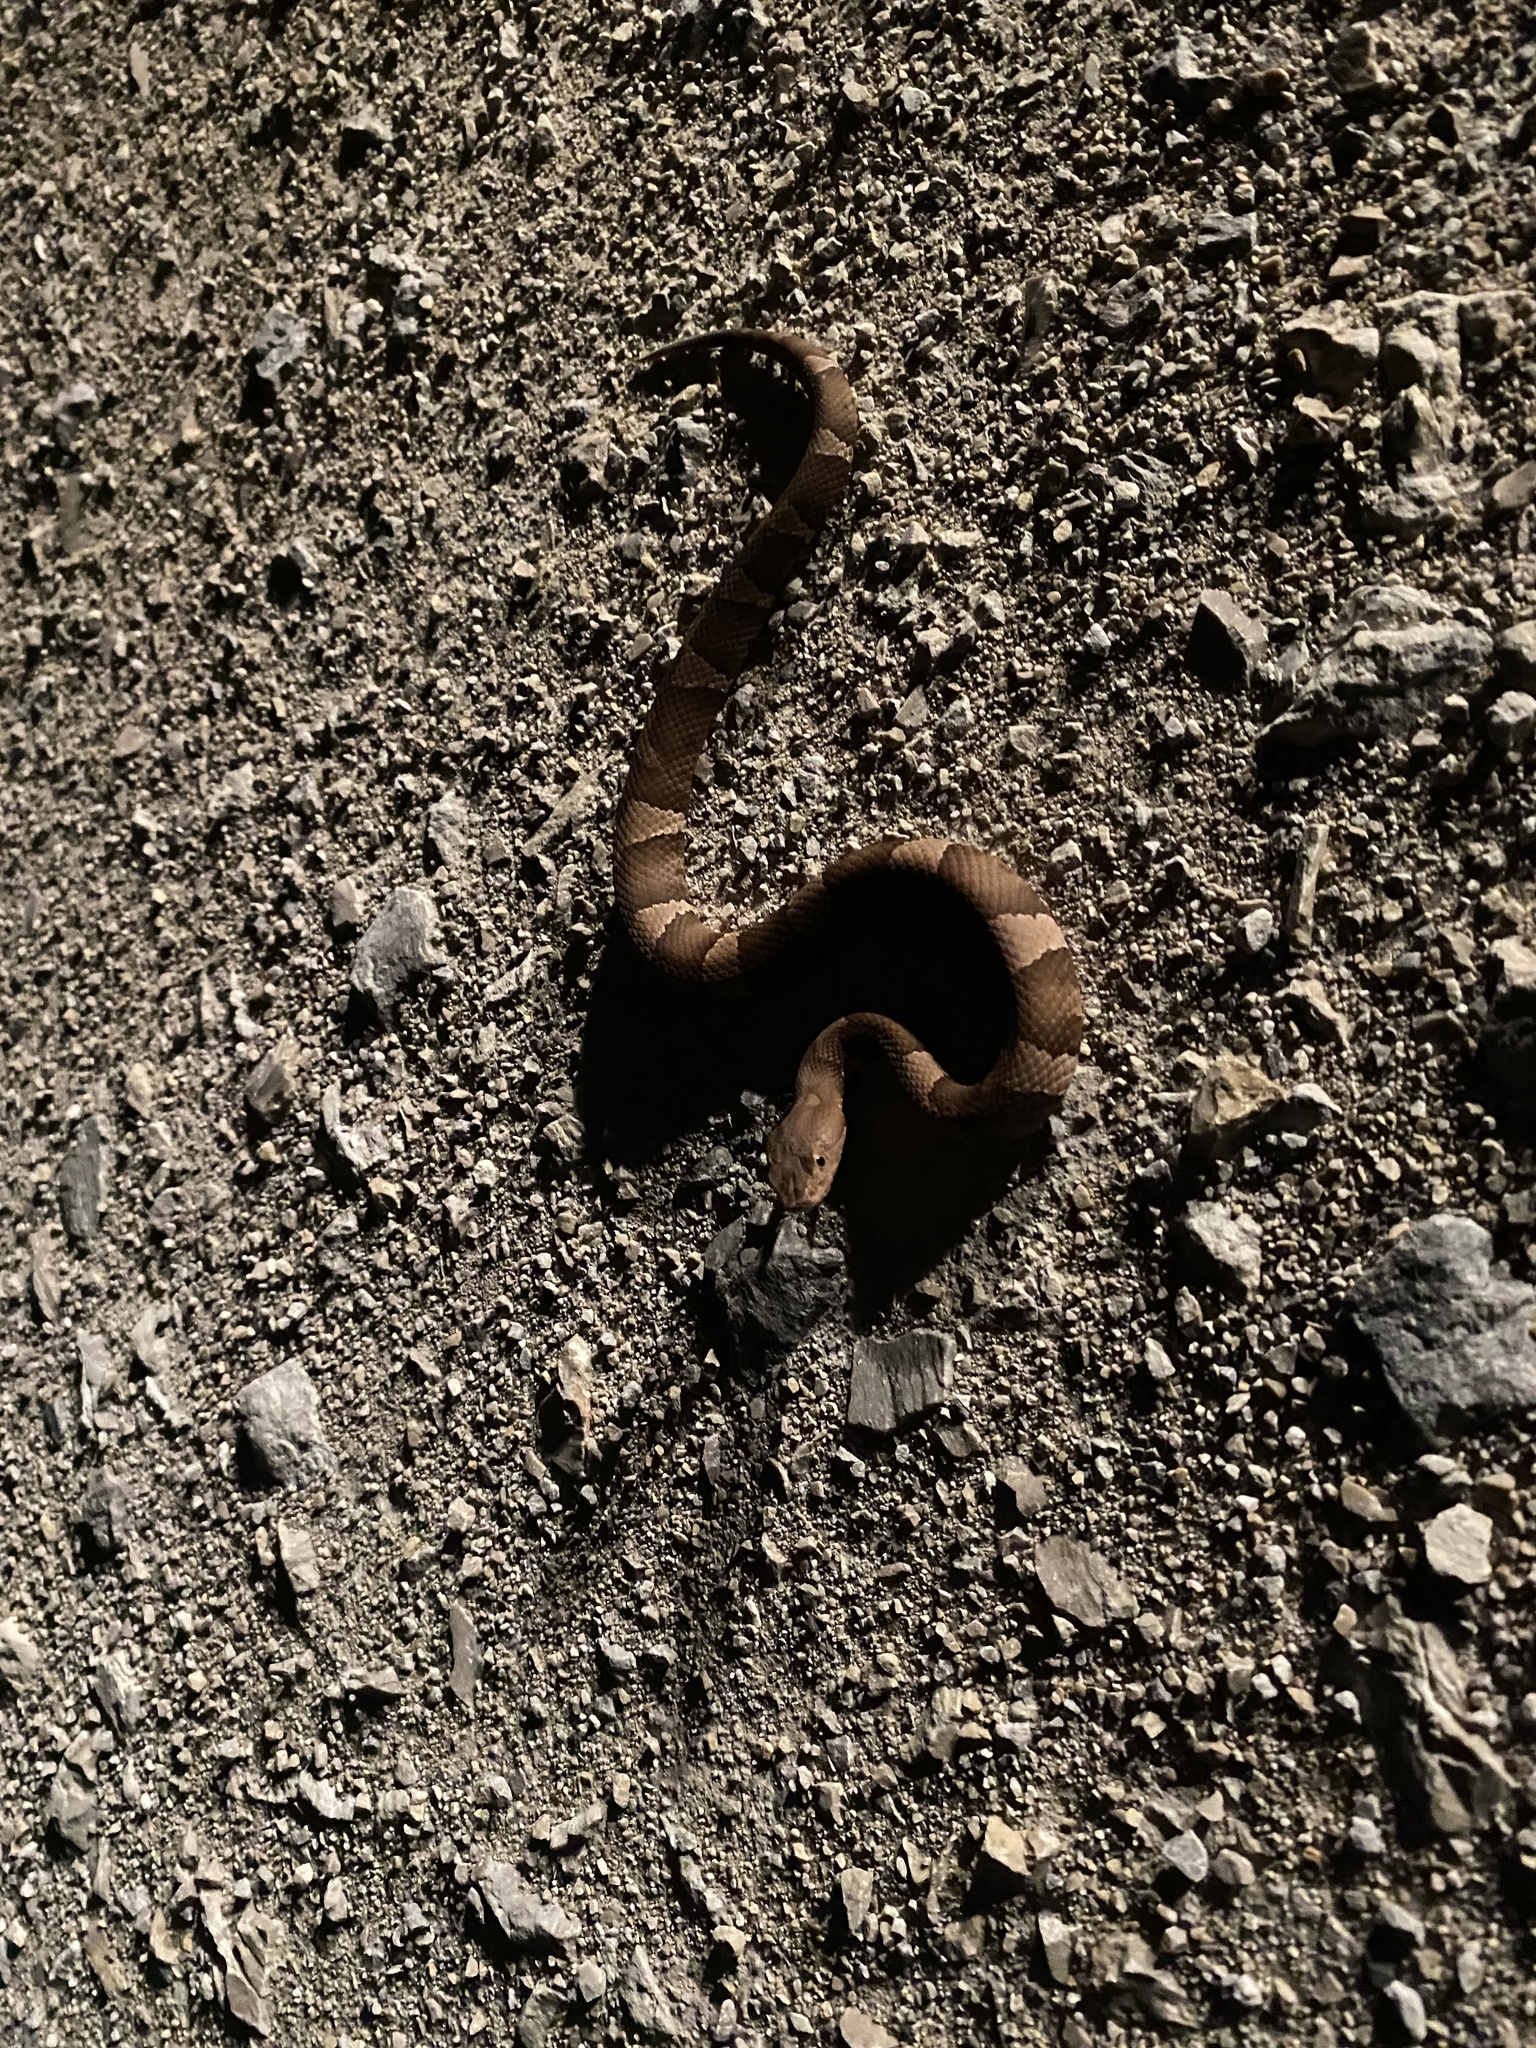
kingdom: Animalia
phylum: Chordata
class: Squamata
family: Viperidae
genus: Agkistrodon
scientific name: Agkistrodon laticinctus
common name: Broad-banded copperhead
